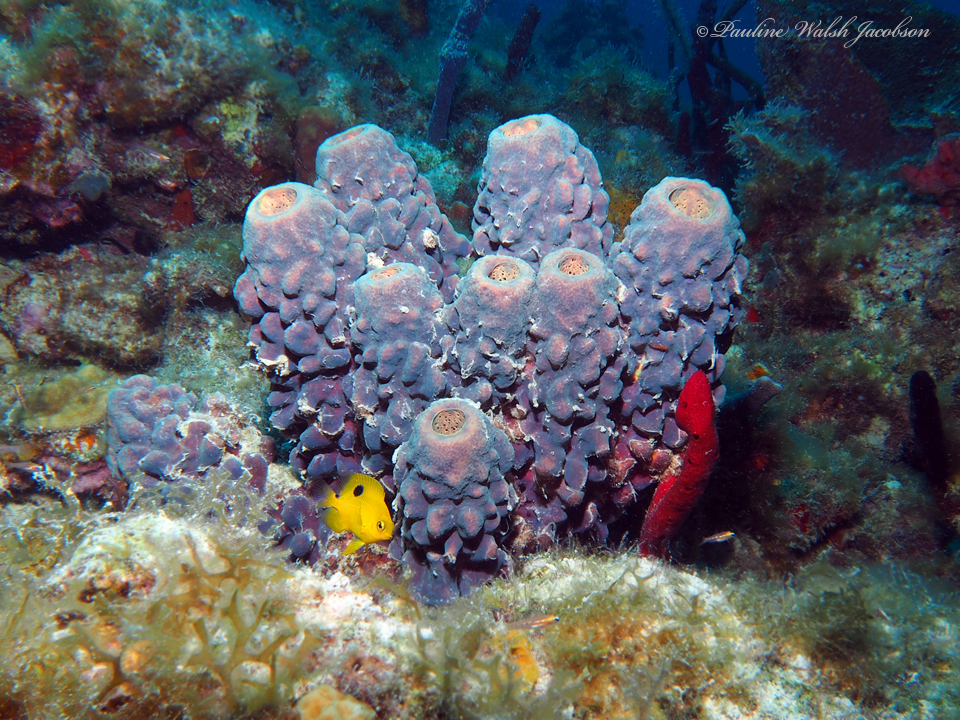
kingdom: Animalia
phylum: Chordata
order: Perciformes
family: Pomacentridae
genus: Stegastes
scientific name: Stegastes planifrons
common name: Threespot damselfish
